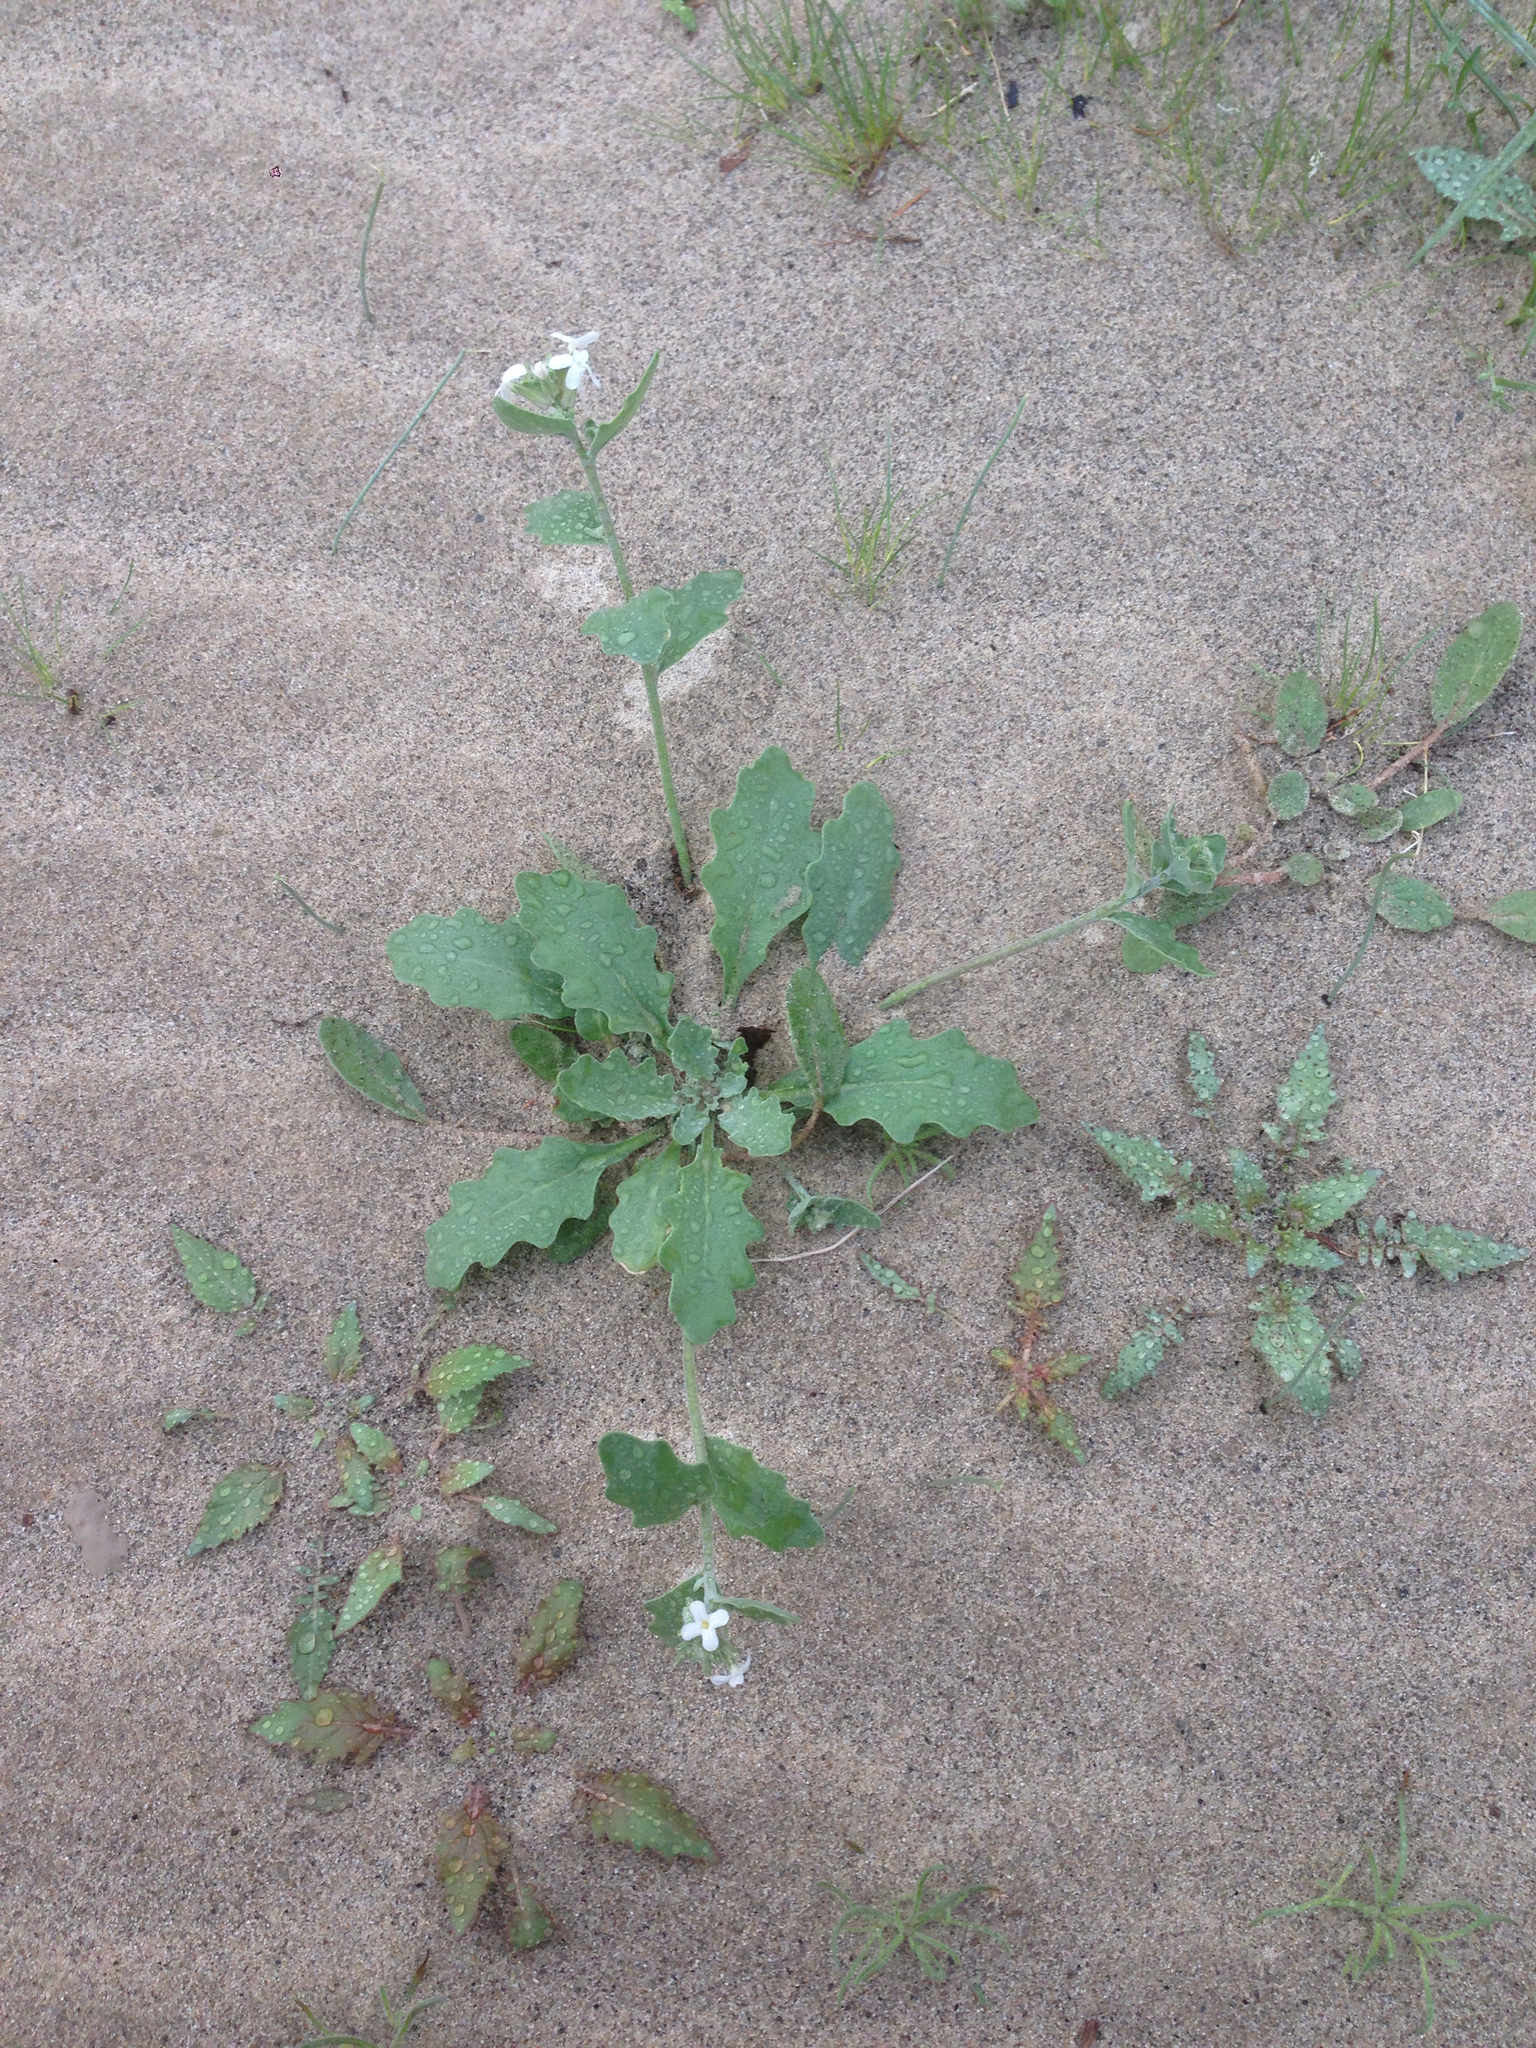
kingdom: Plantae
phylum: Tracheophyta
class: Magnoliopsida
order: Brassicales
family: Brassicaceae
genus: Dithyrea
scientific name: Dithyrea californica
